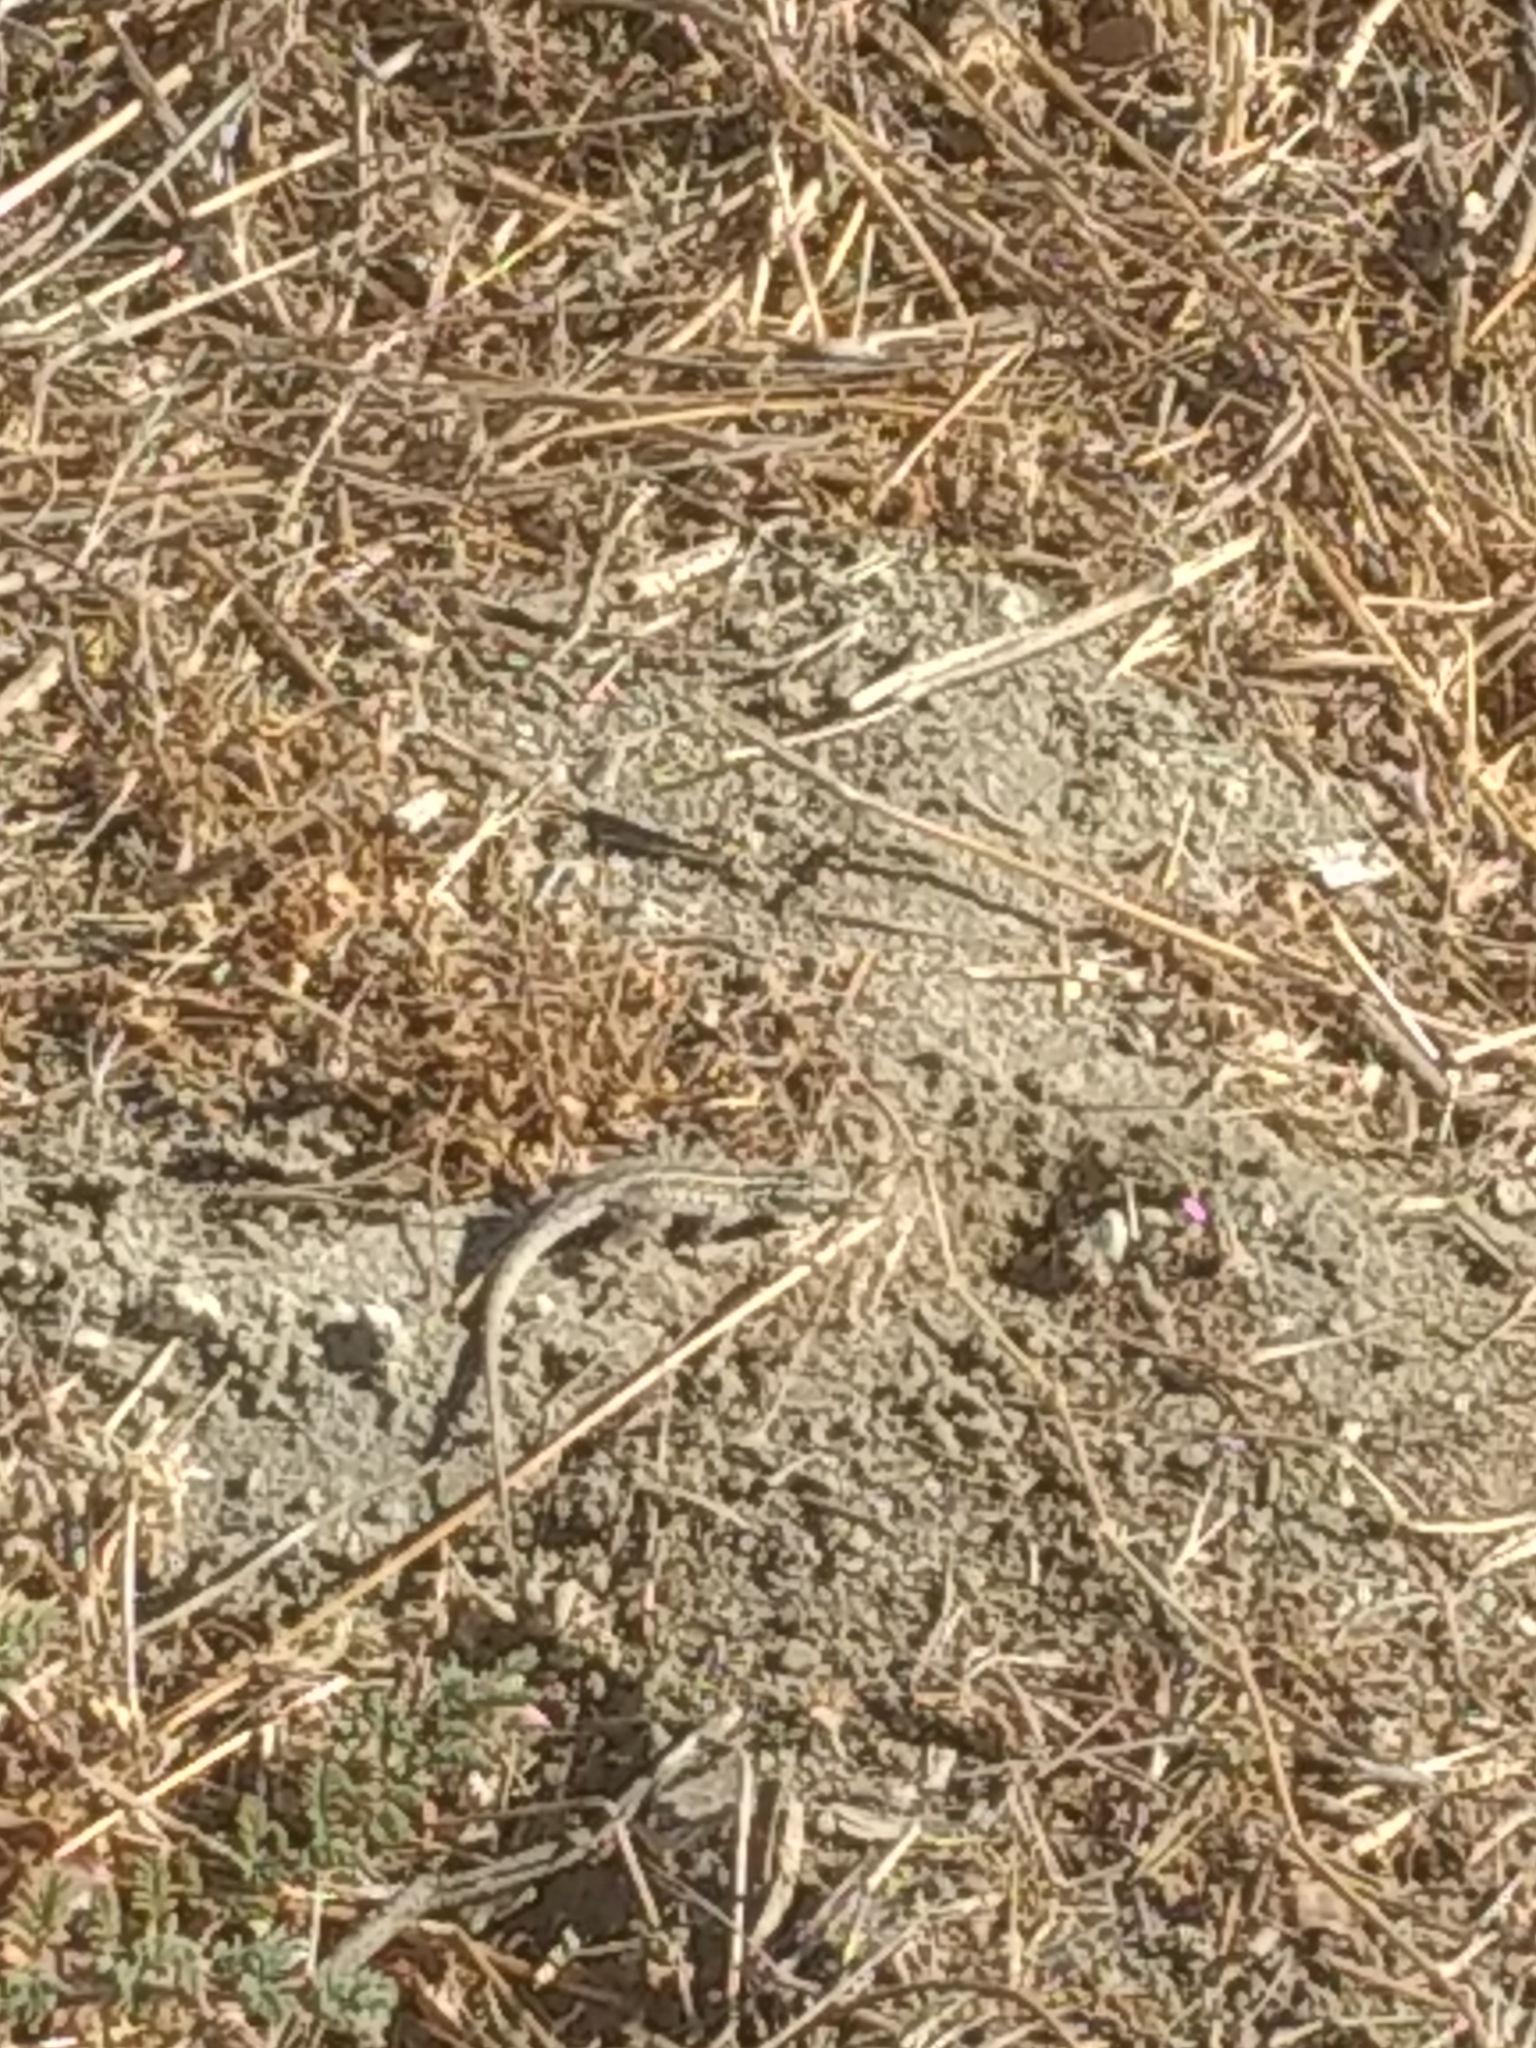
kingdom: Animalia
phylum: Chordata
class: Squamata
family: Phrynosomatidae
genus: Uta
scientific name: Uta stansburiana
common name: Side-blotched lizard
